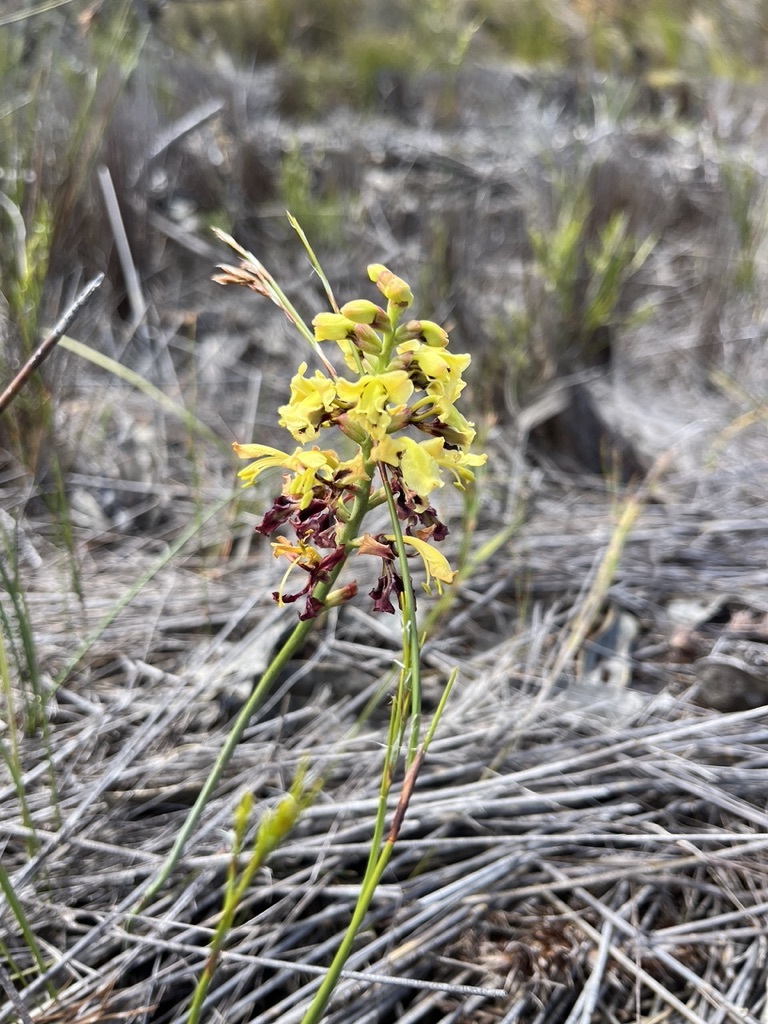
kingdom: Plantae
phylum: Tracheophyta
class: Liliopsida
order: Asparagales
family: Iridaceae
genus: Tritoniopsis
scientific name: Tritoniopsis parviflora
